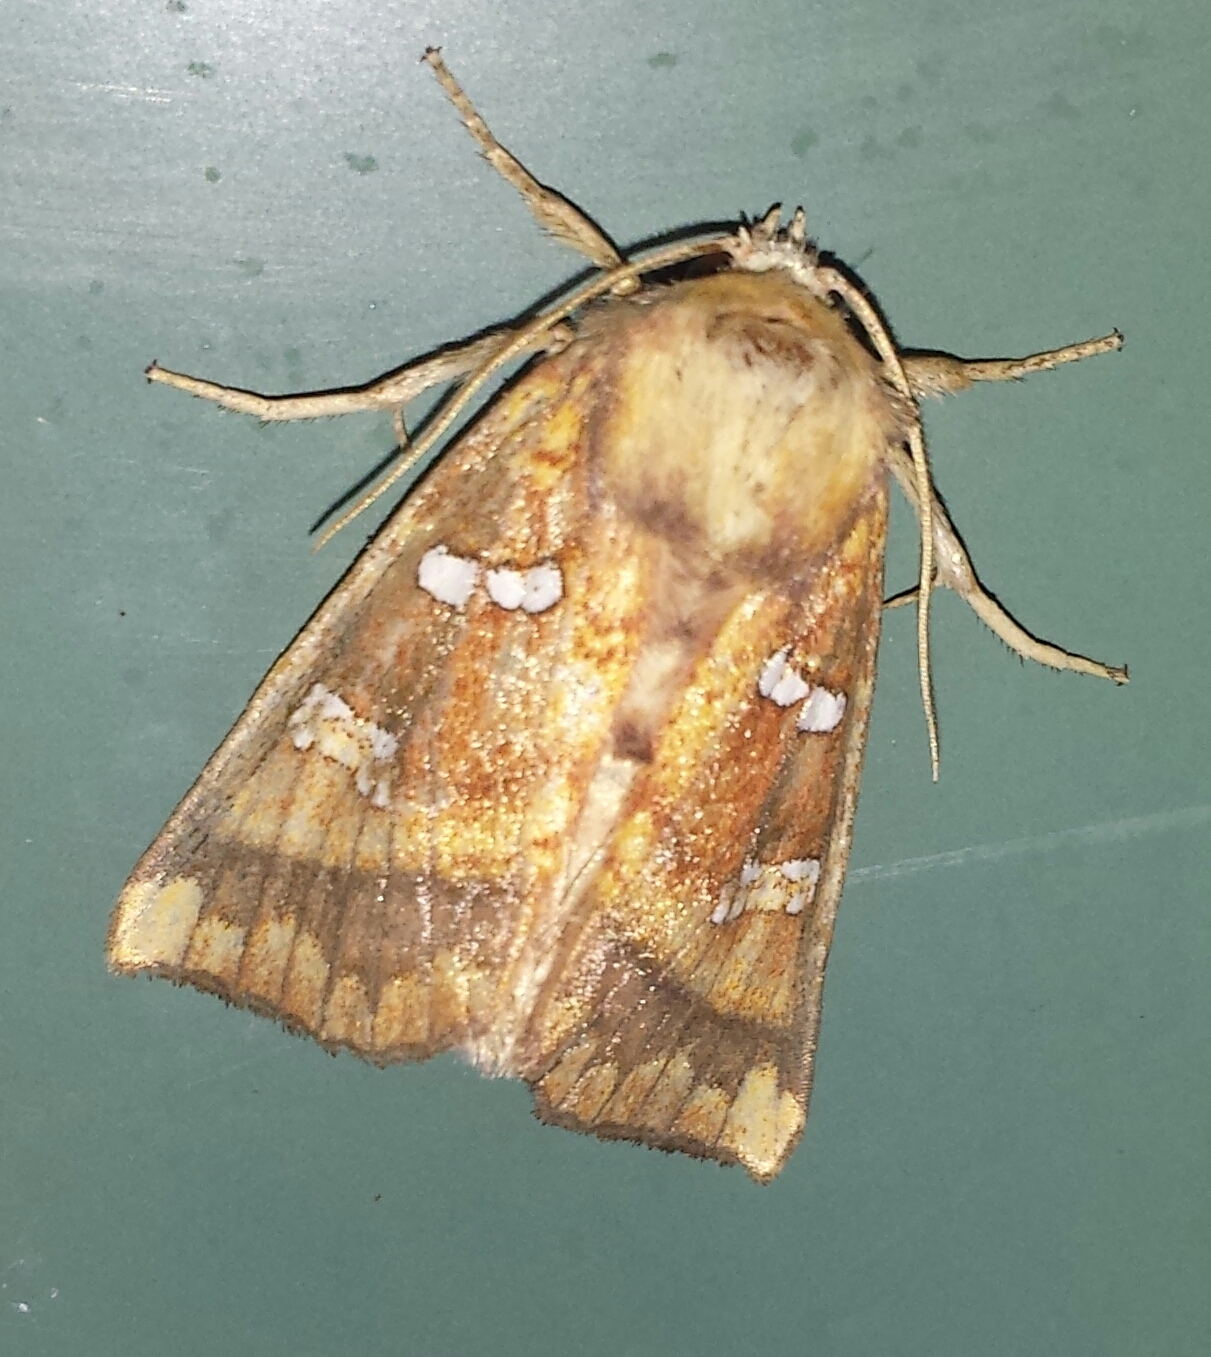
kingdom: Animalia
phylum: Arthropoda
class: Insecta
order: Lepidoptera
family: Noctuidae
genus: Papaipema
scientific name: Papaipema pterisii
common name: Bracken borer moth
